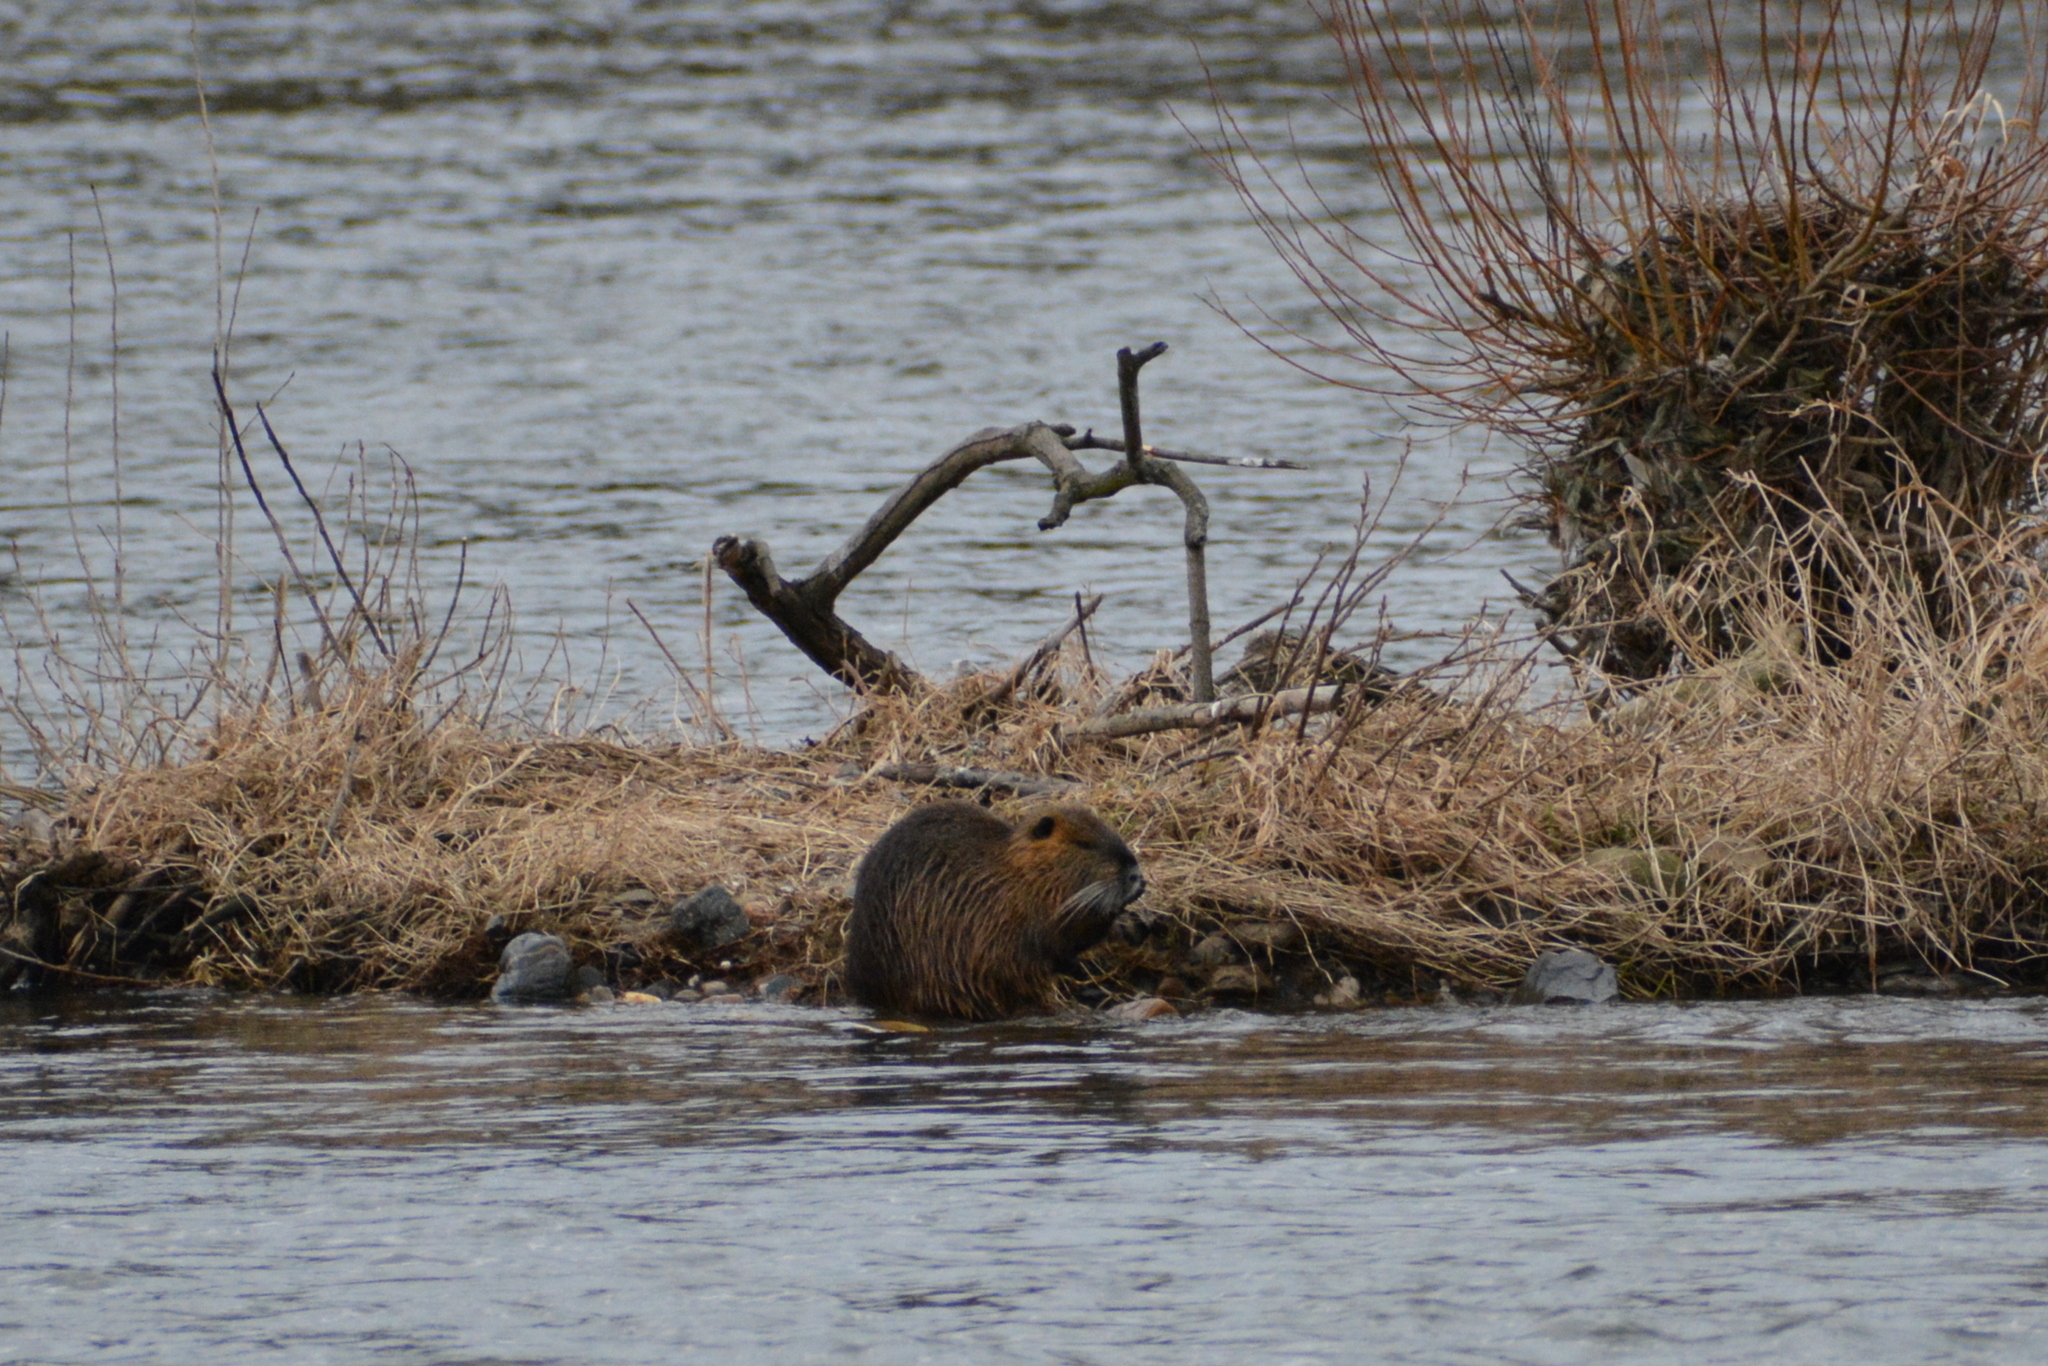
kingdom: Animalia
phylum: Chordata
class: Mammalia
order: Rodentia
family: Myocastoridae
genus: Myocastor
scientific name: Myocastor coypus
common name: Coypu
